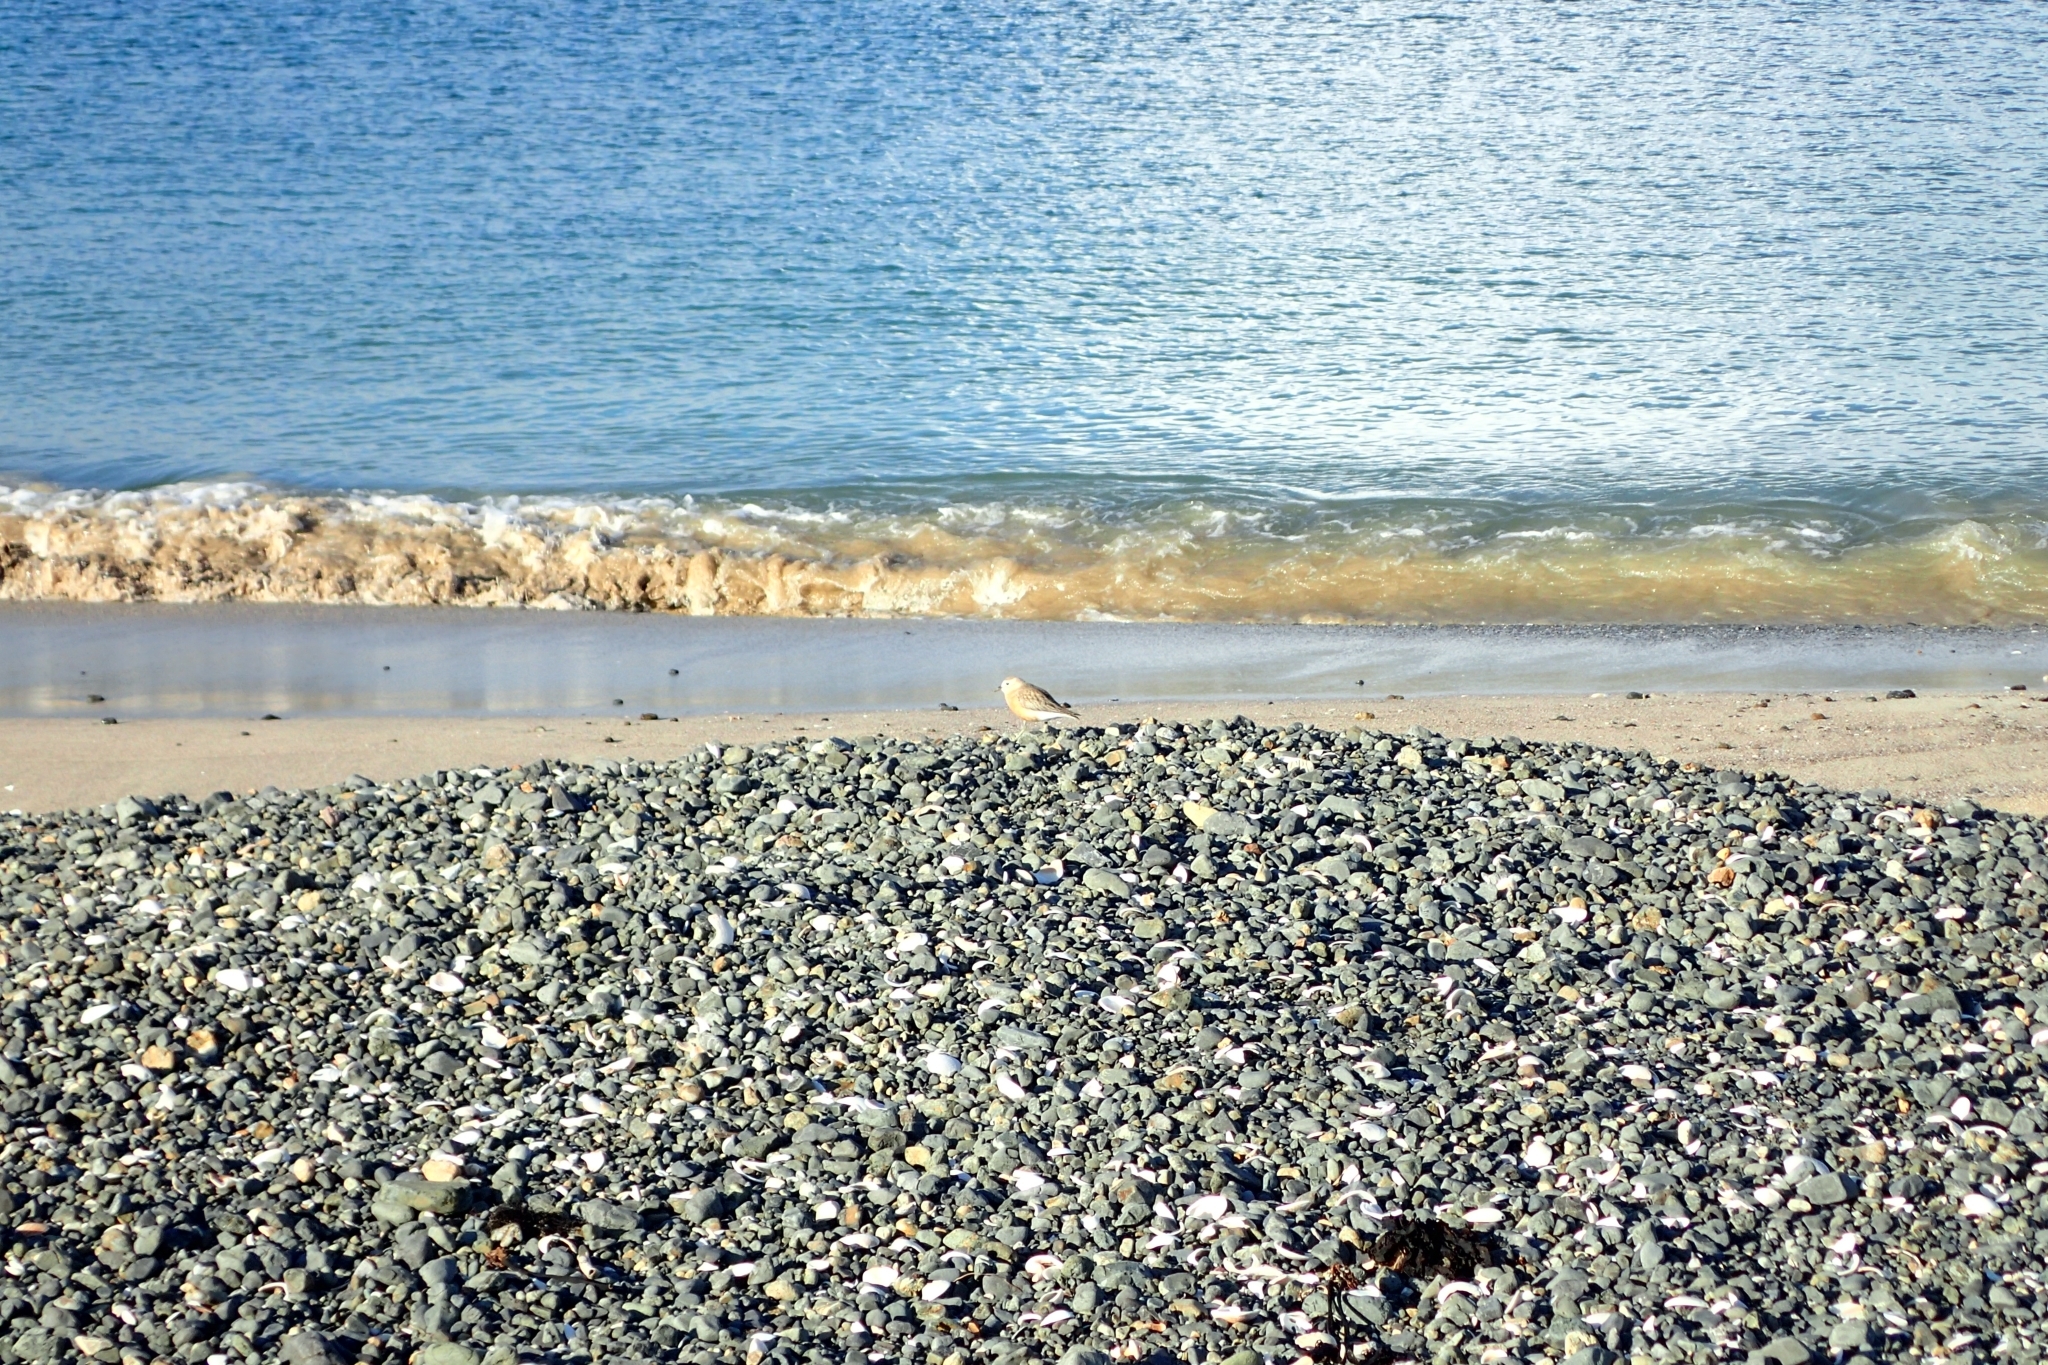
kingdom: Animalia
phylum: Chordata
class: Aves
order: Charadriiformes
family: Charadriidae
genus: Anarhynchus
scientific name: Anarhynchus
